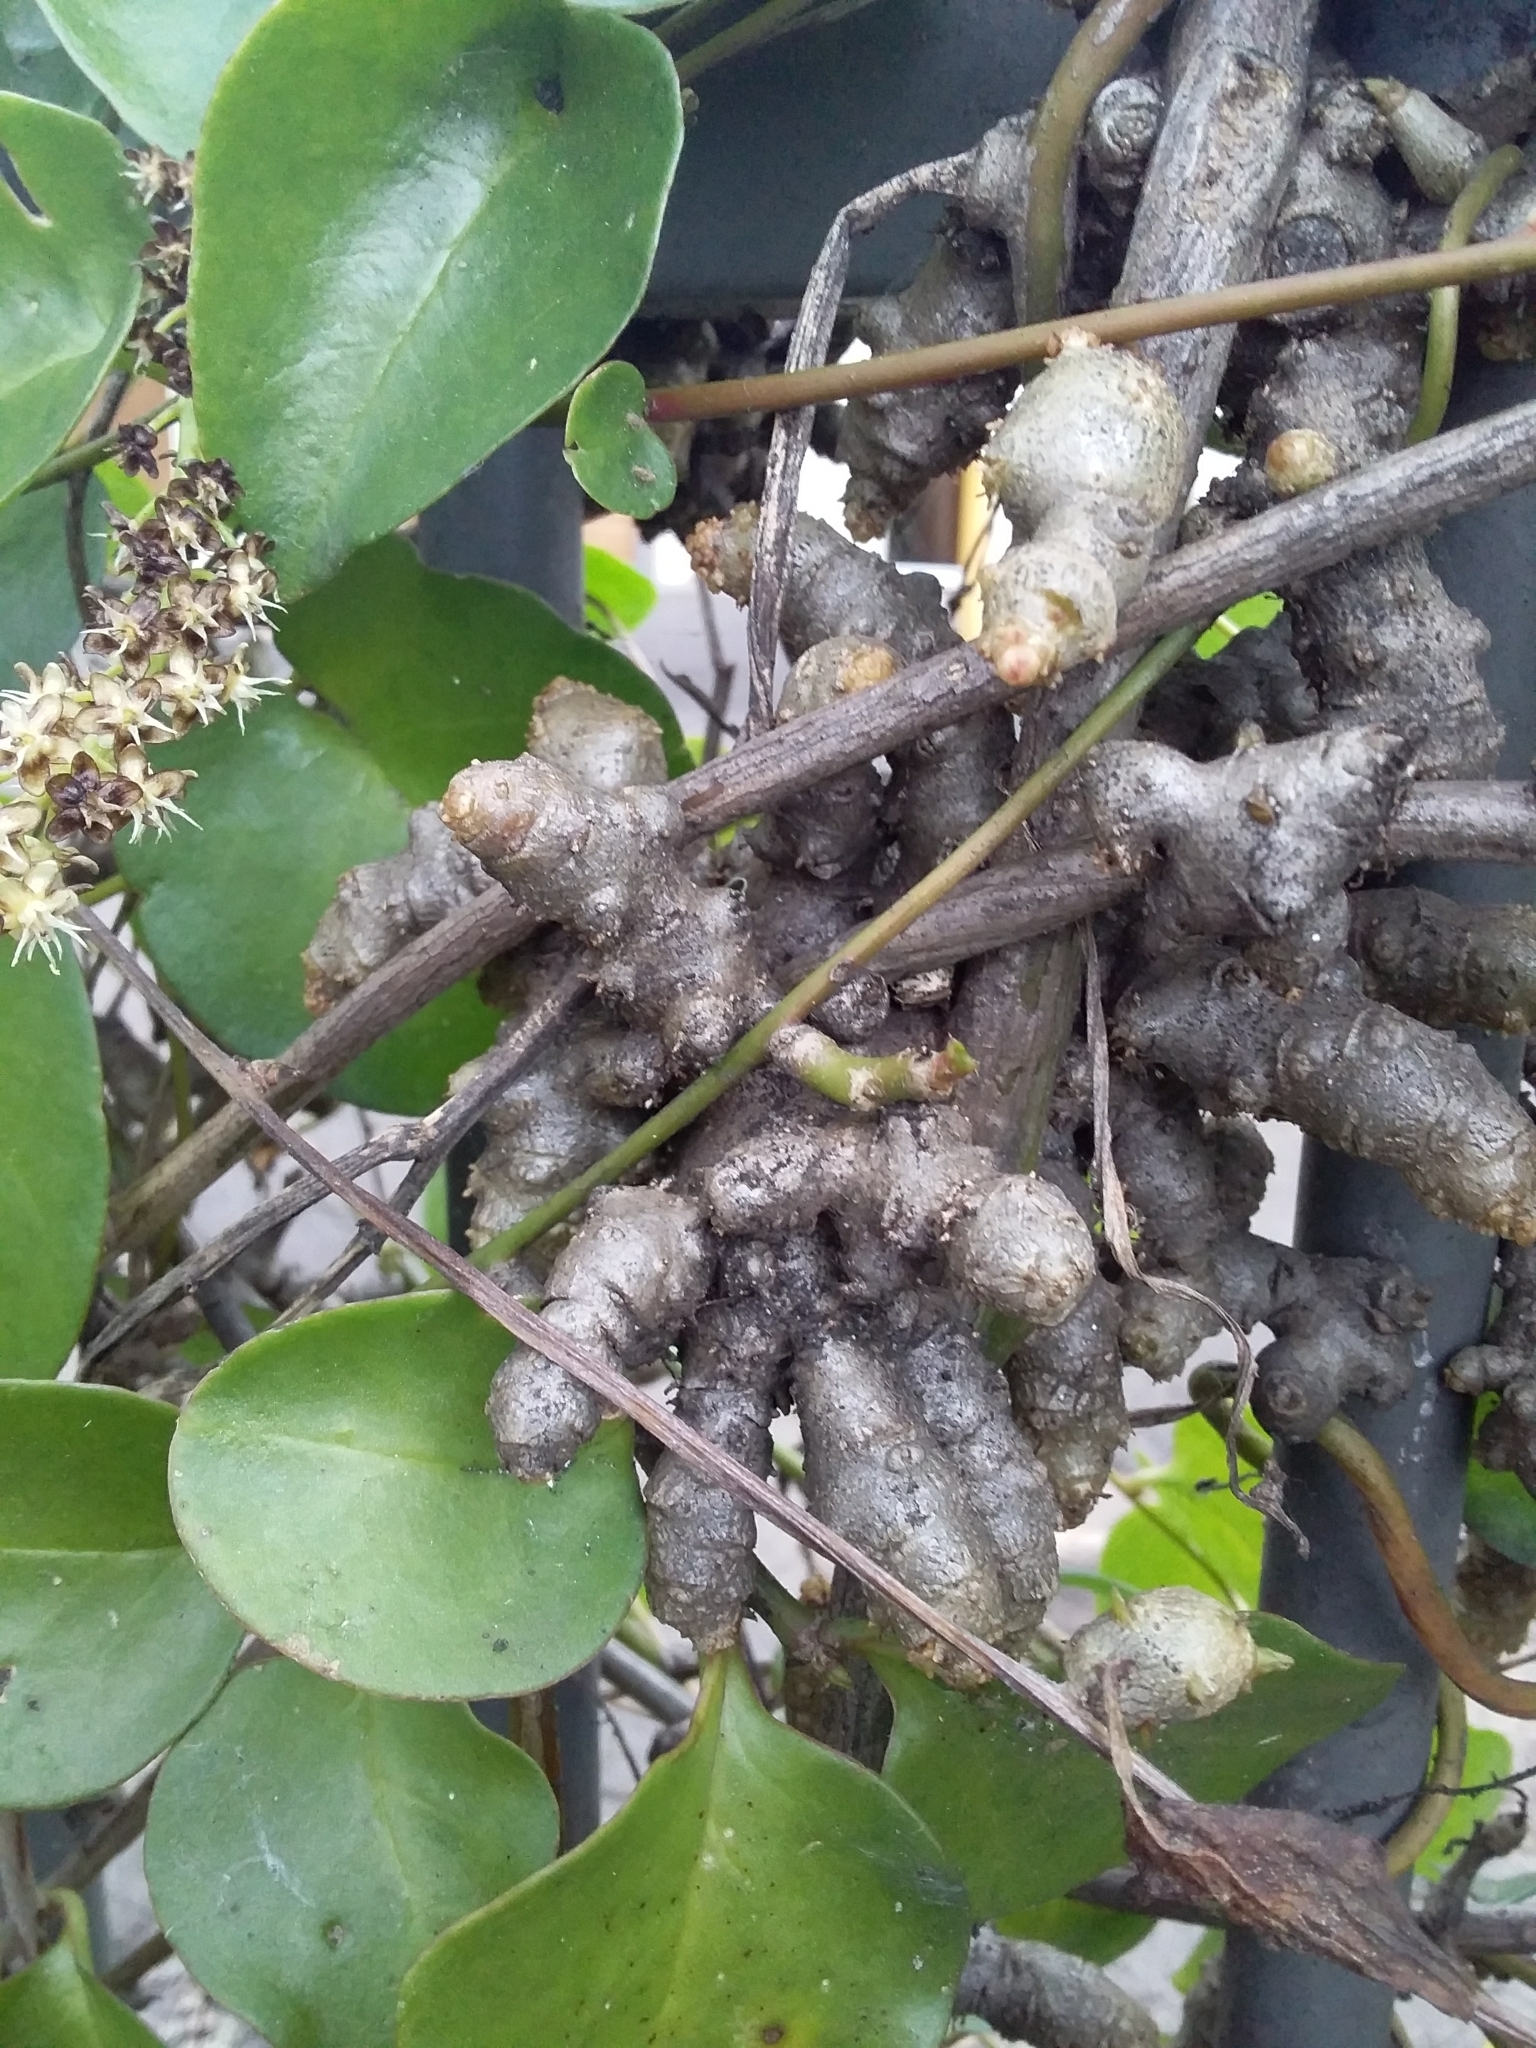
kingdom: Plantae
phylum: Tracheophyta
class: Magnoliopsida
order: Caryophyllales
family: Basellaceae
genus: Anredera
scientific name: Anredera cordifolia
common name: Heartleaf madeiravine
